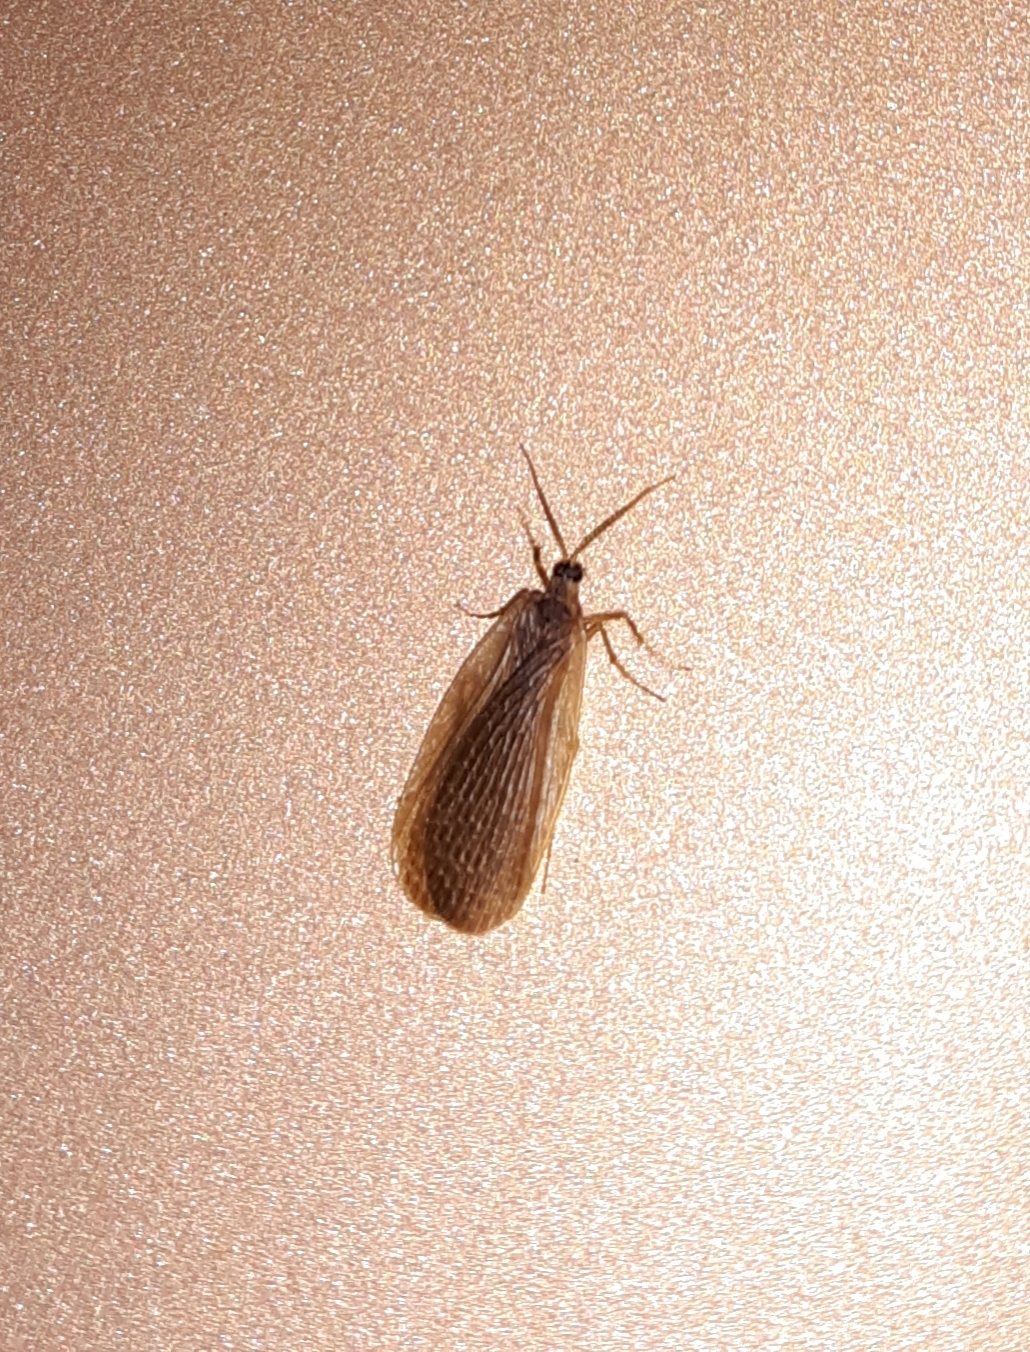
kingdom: Animalia
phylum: Arthropoda
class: Insecta
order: Mecoptera
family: Meropeidae
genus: Merope
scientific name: Merope tuber
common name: Forcepfly
